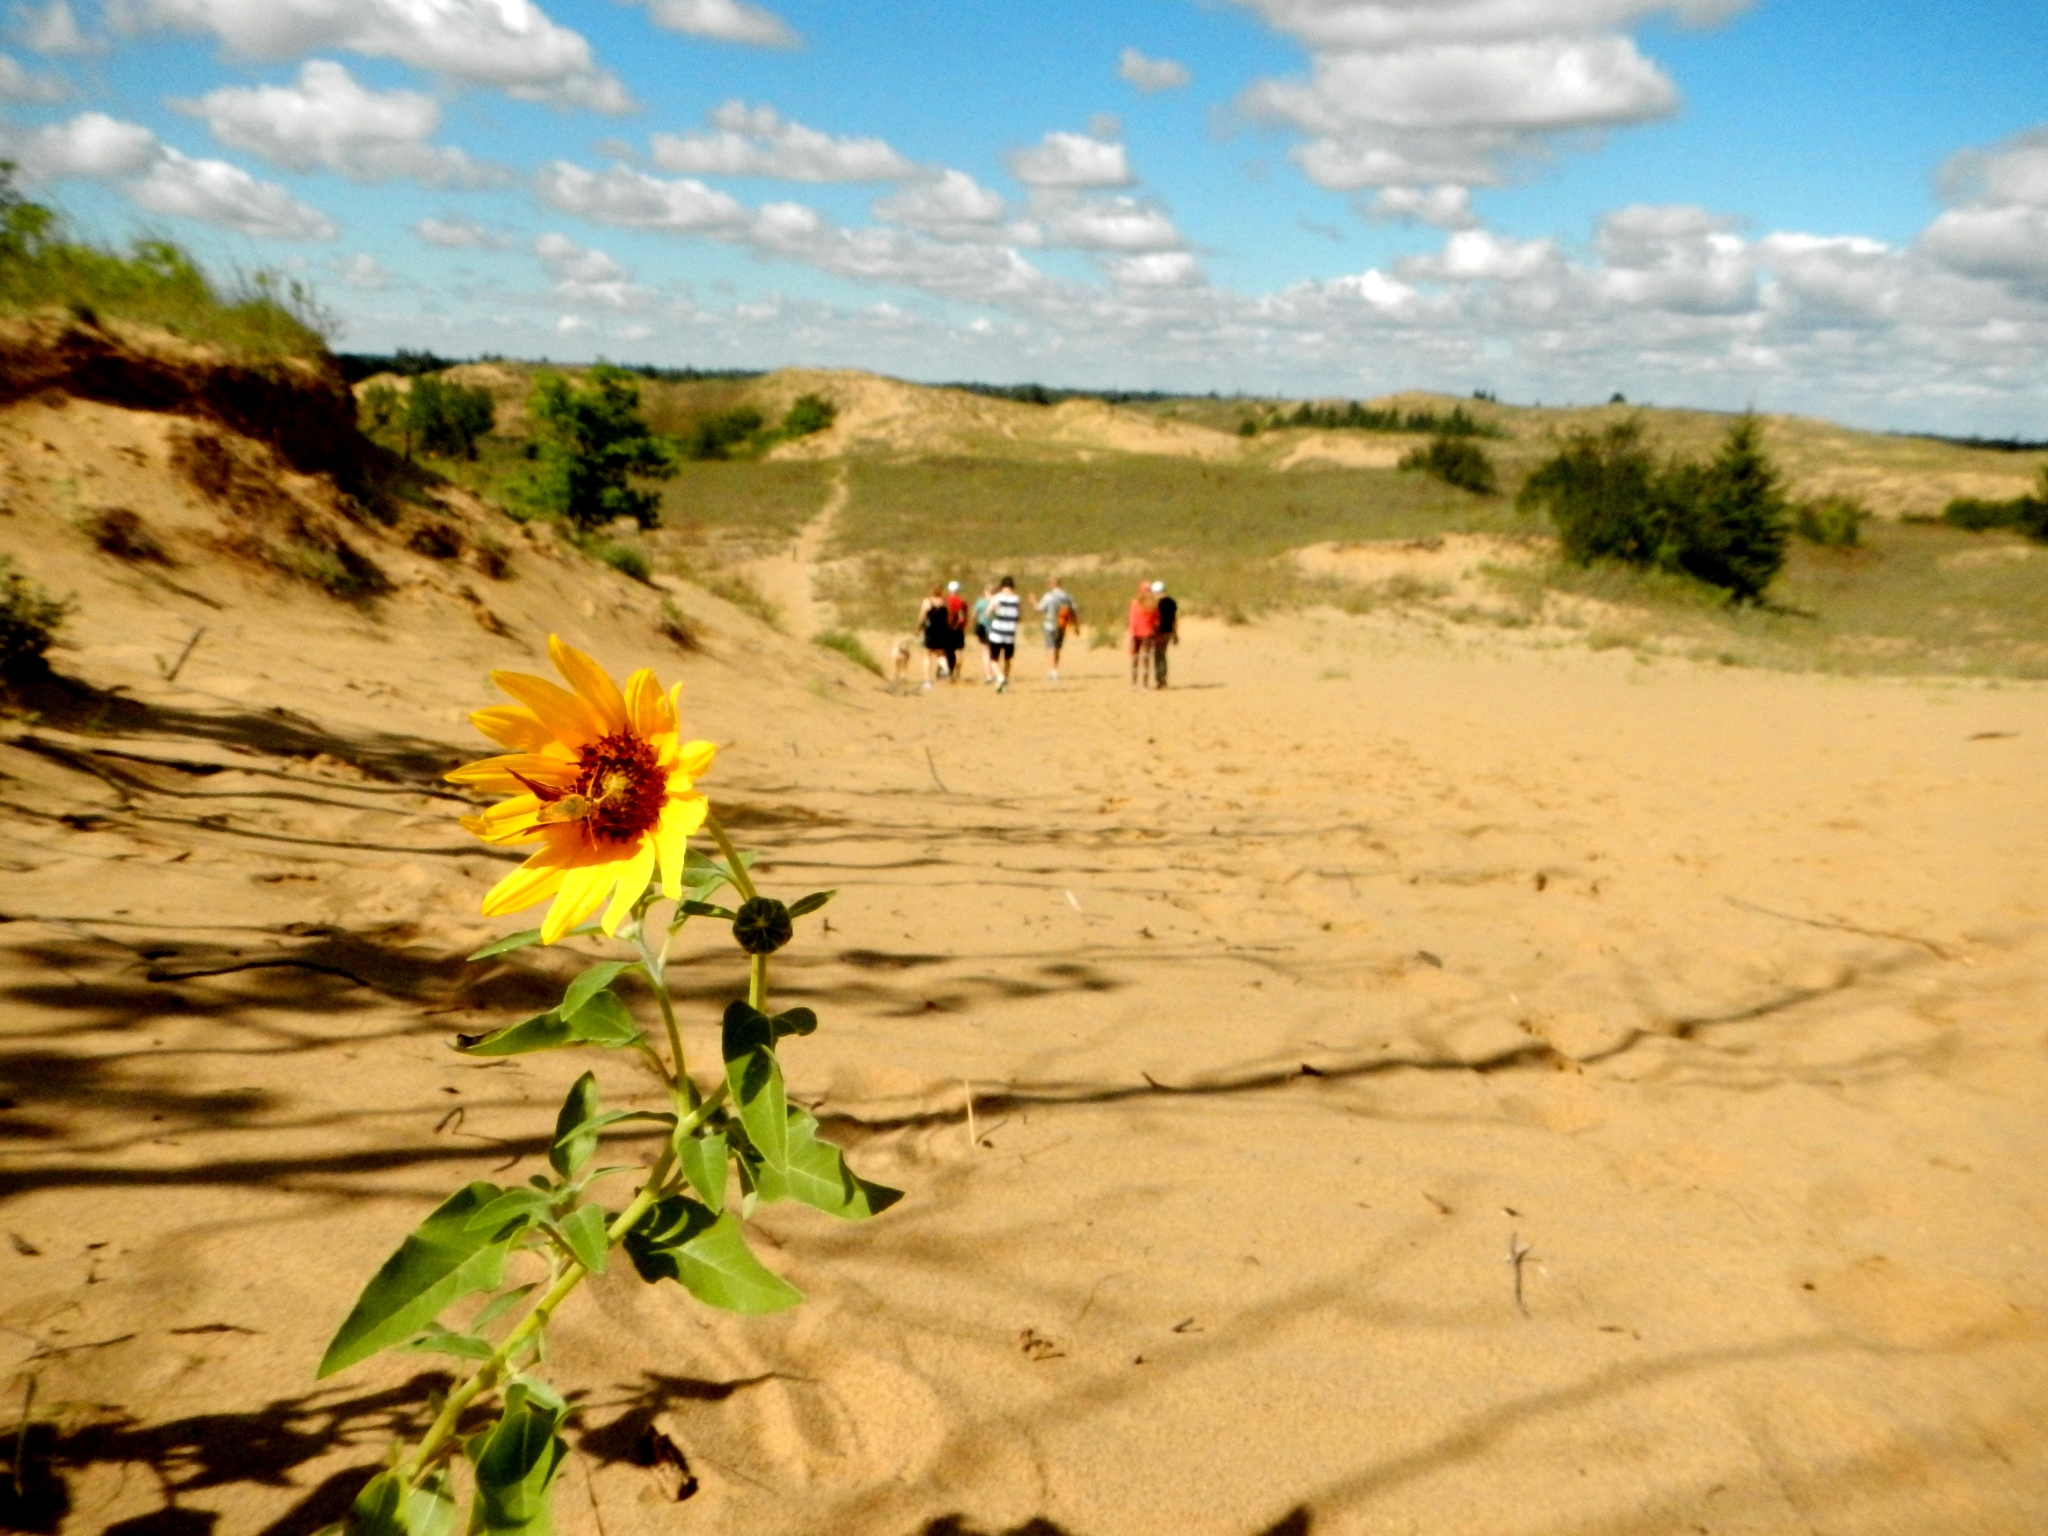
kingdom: Plantae
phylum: Tracheophyta
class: Magnoliopsida
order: Asterales
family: Asteraceae
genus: Helianthus
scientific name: Helianthus annuus
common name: Sunflower
